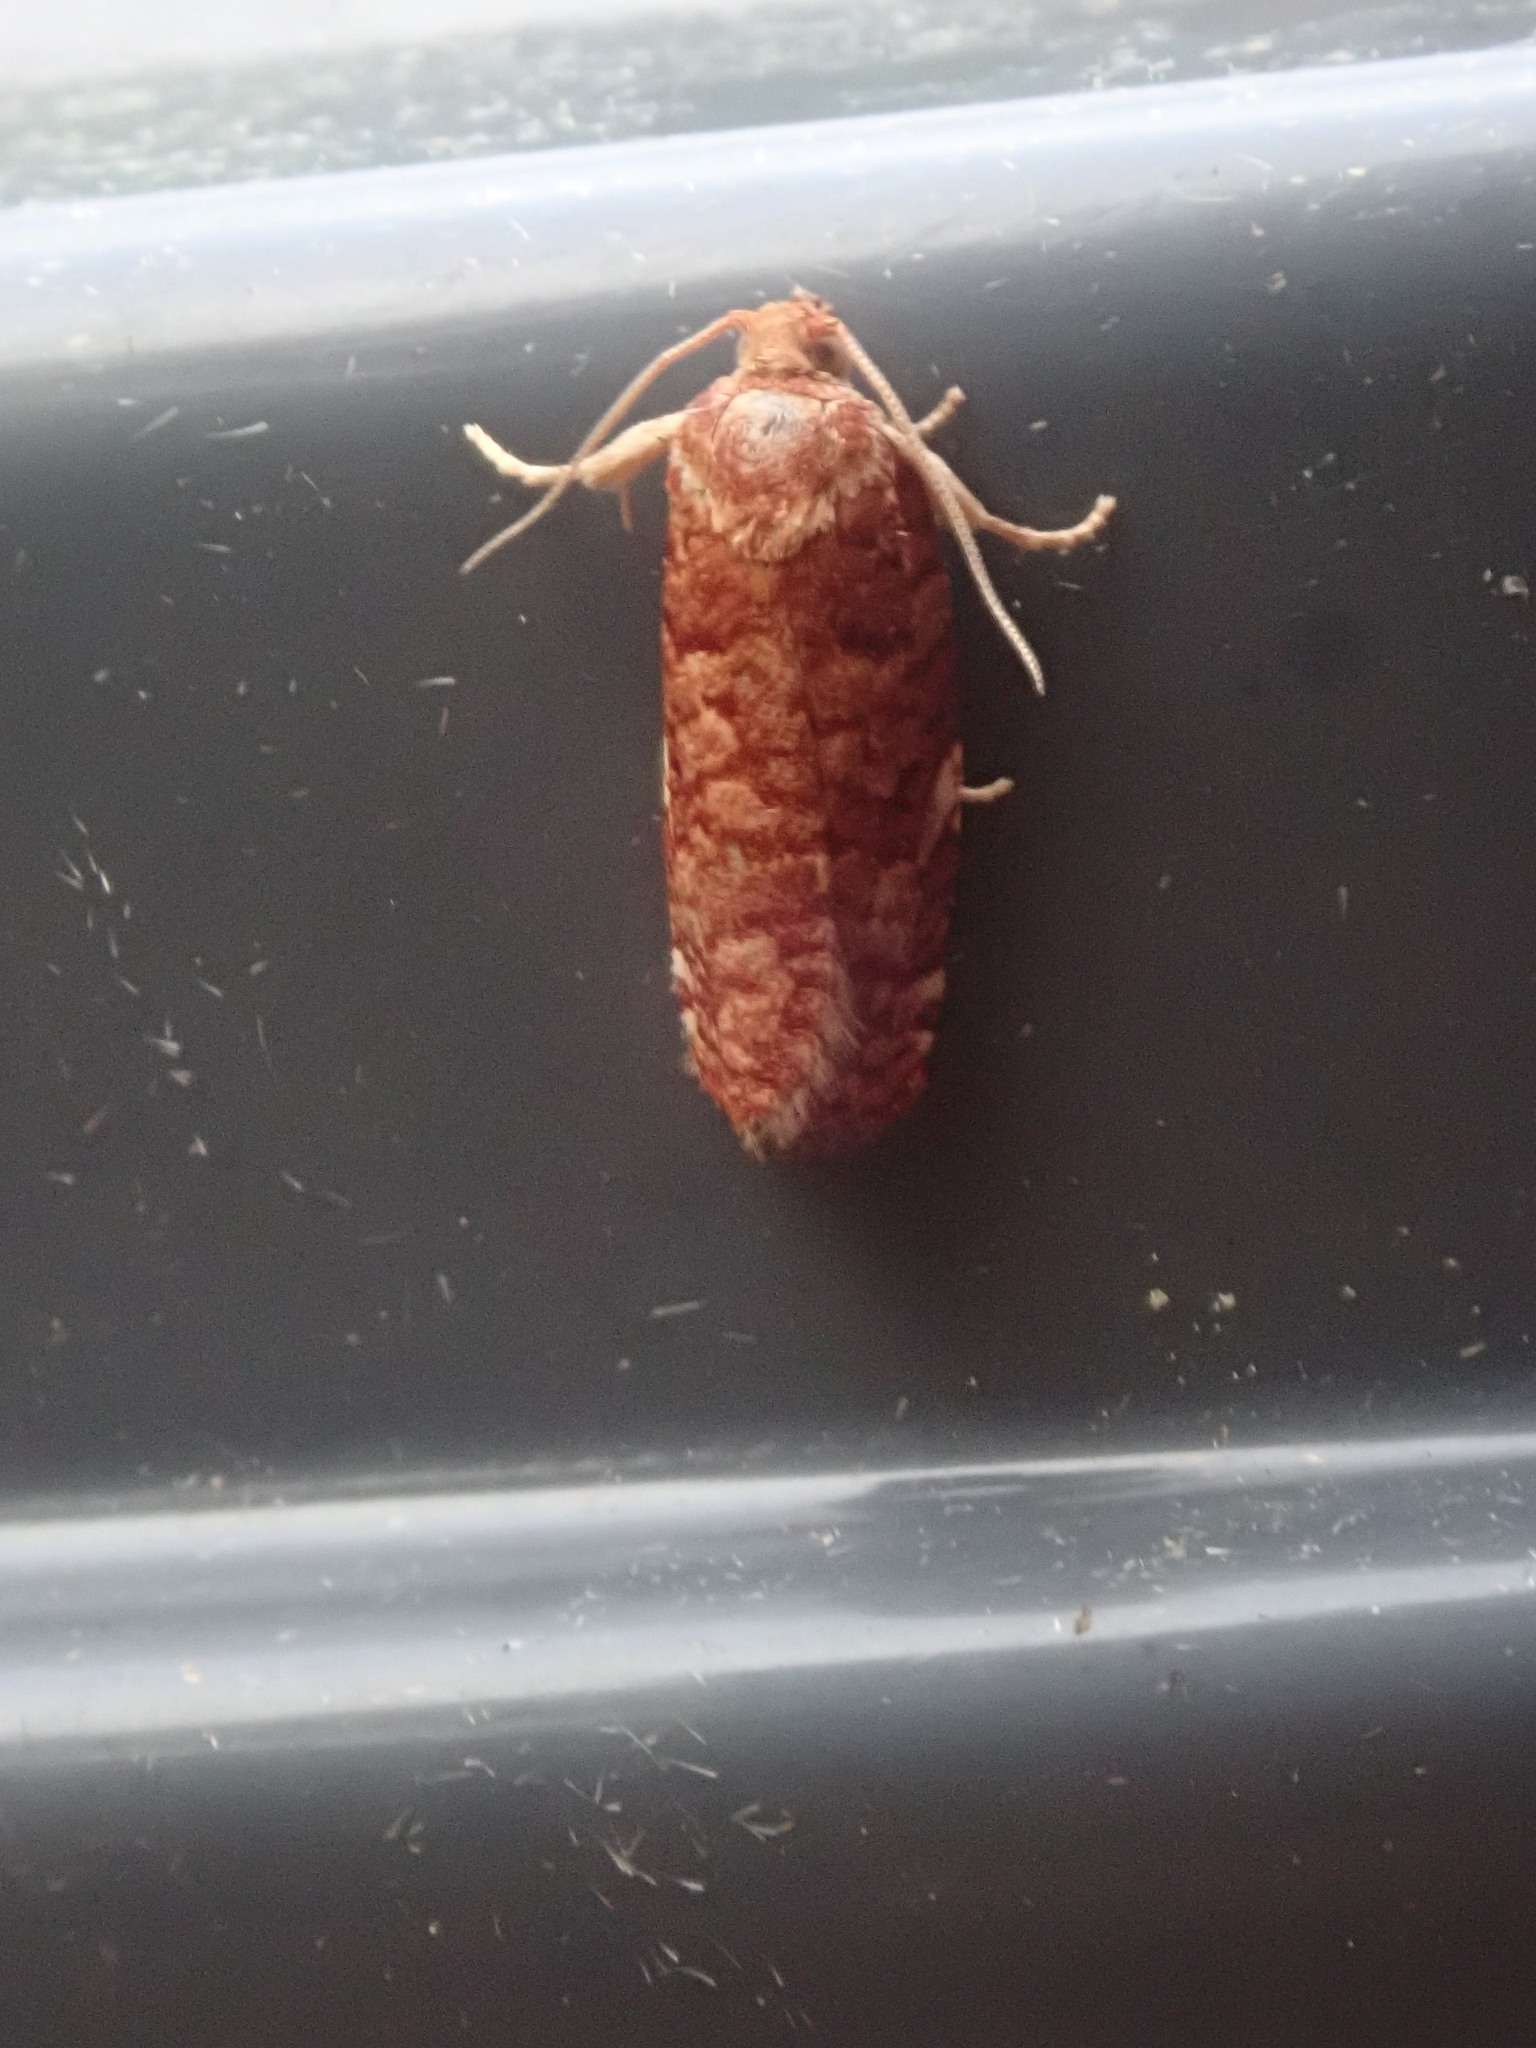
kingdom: Animalia
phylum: Arthropoda
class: Insecta
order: Lepidoptera
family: Tortricidae
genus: Choristoneura
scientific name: Choristoneura pinus
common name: Jack pine budworm
